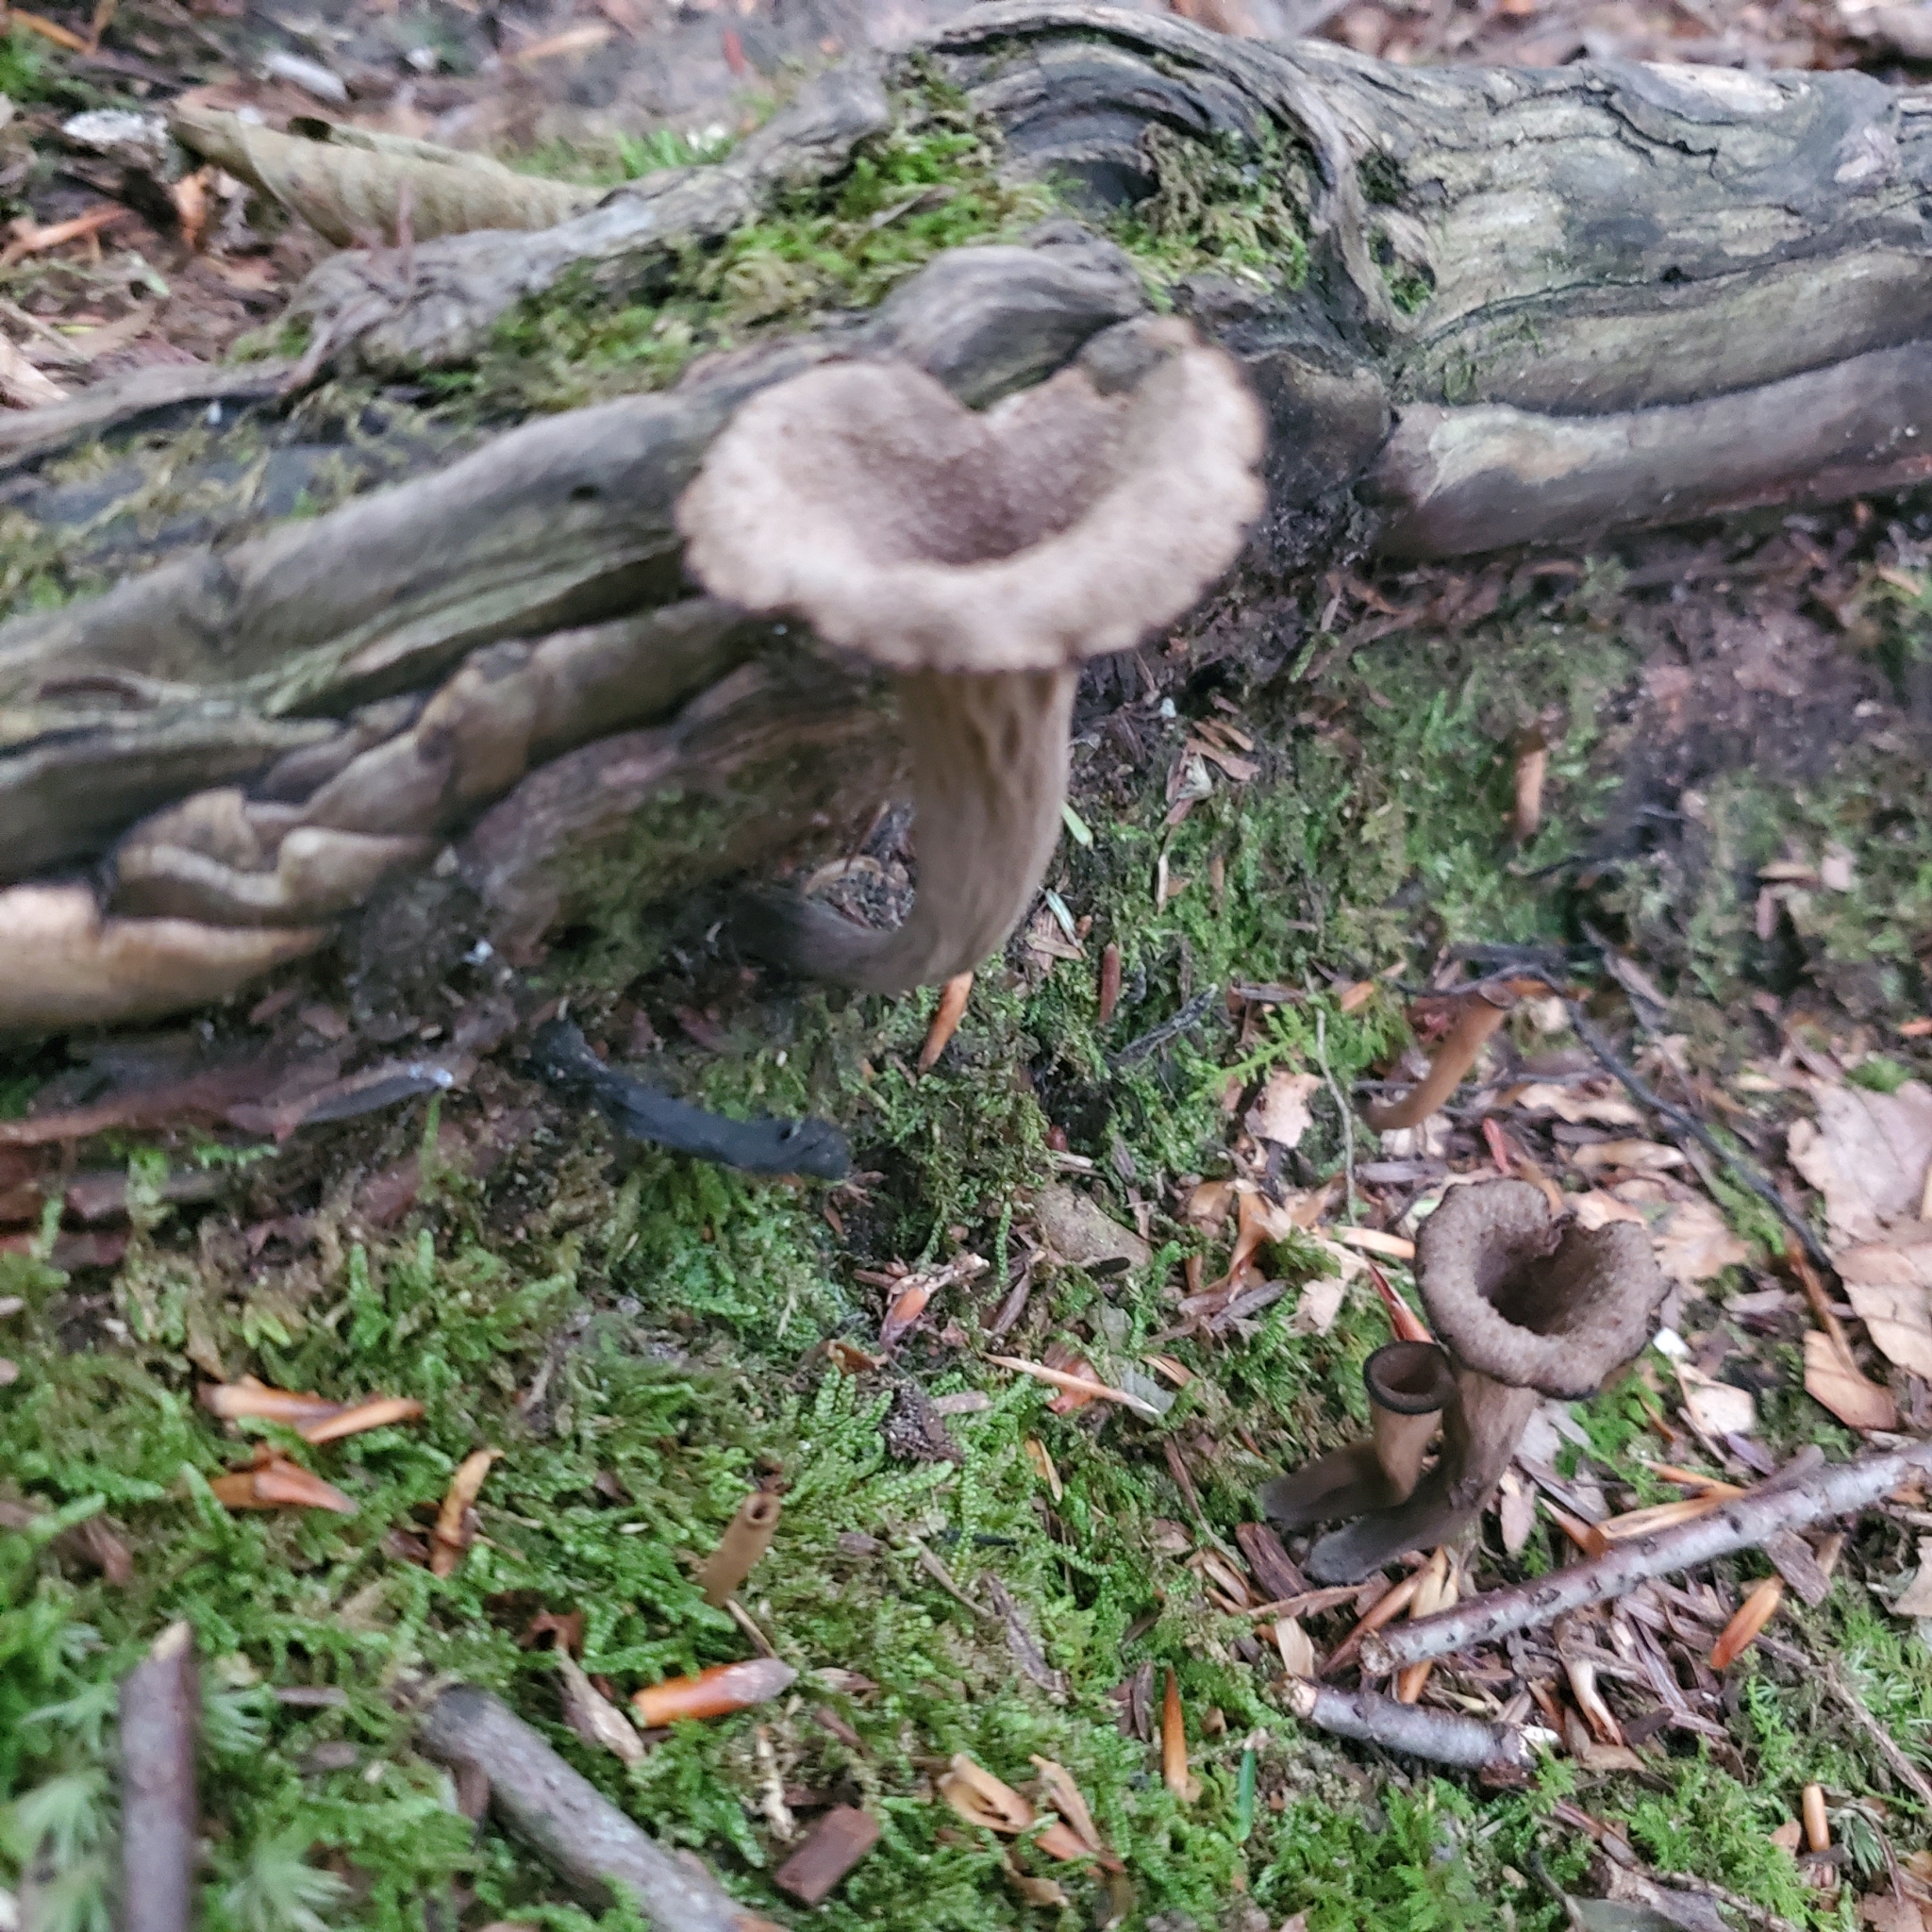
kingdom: Fungi
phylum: Basidiomycota
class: Agaricomycetes
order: Cantharellales
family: Hydnaceae
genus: Craterellus
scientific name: Craterellus cornucopioides
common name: Horn of plenty
